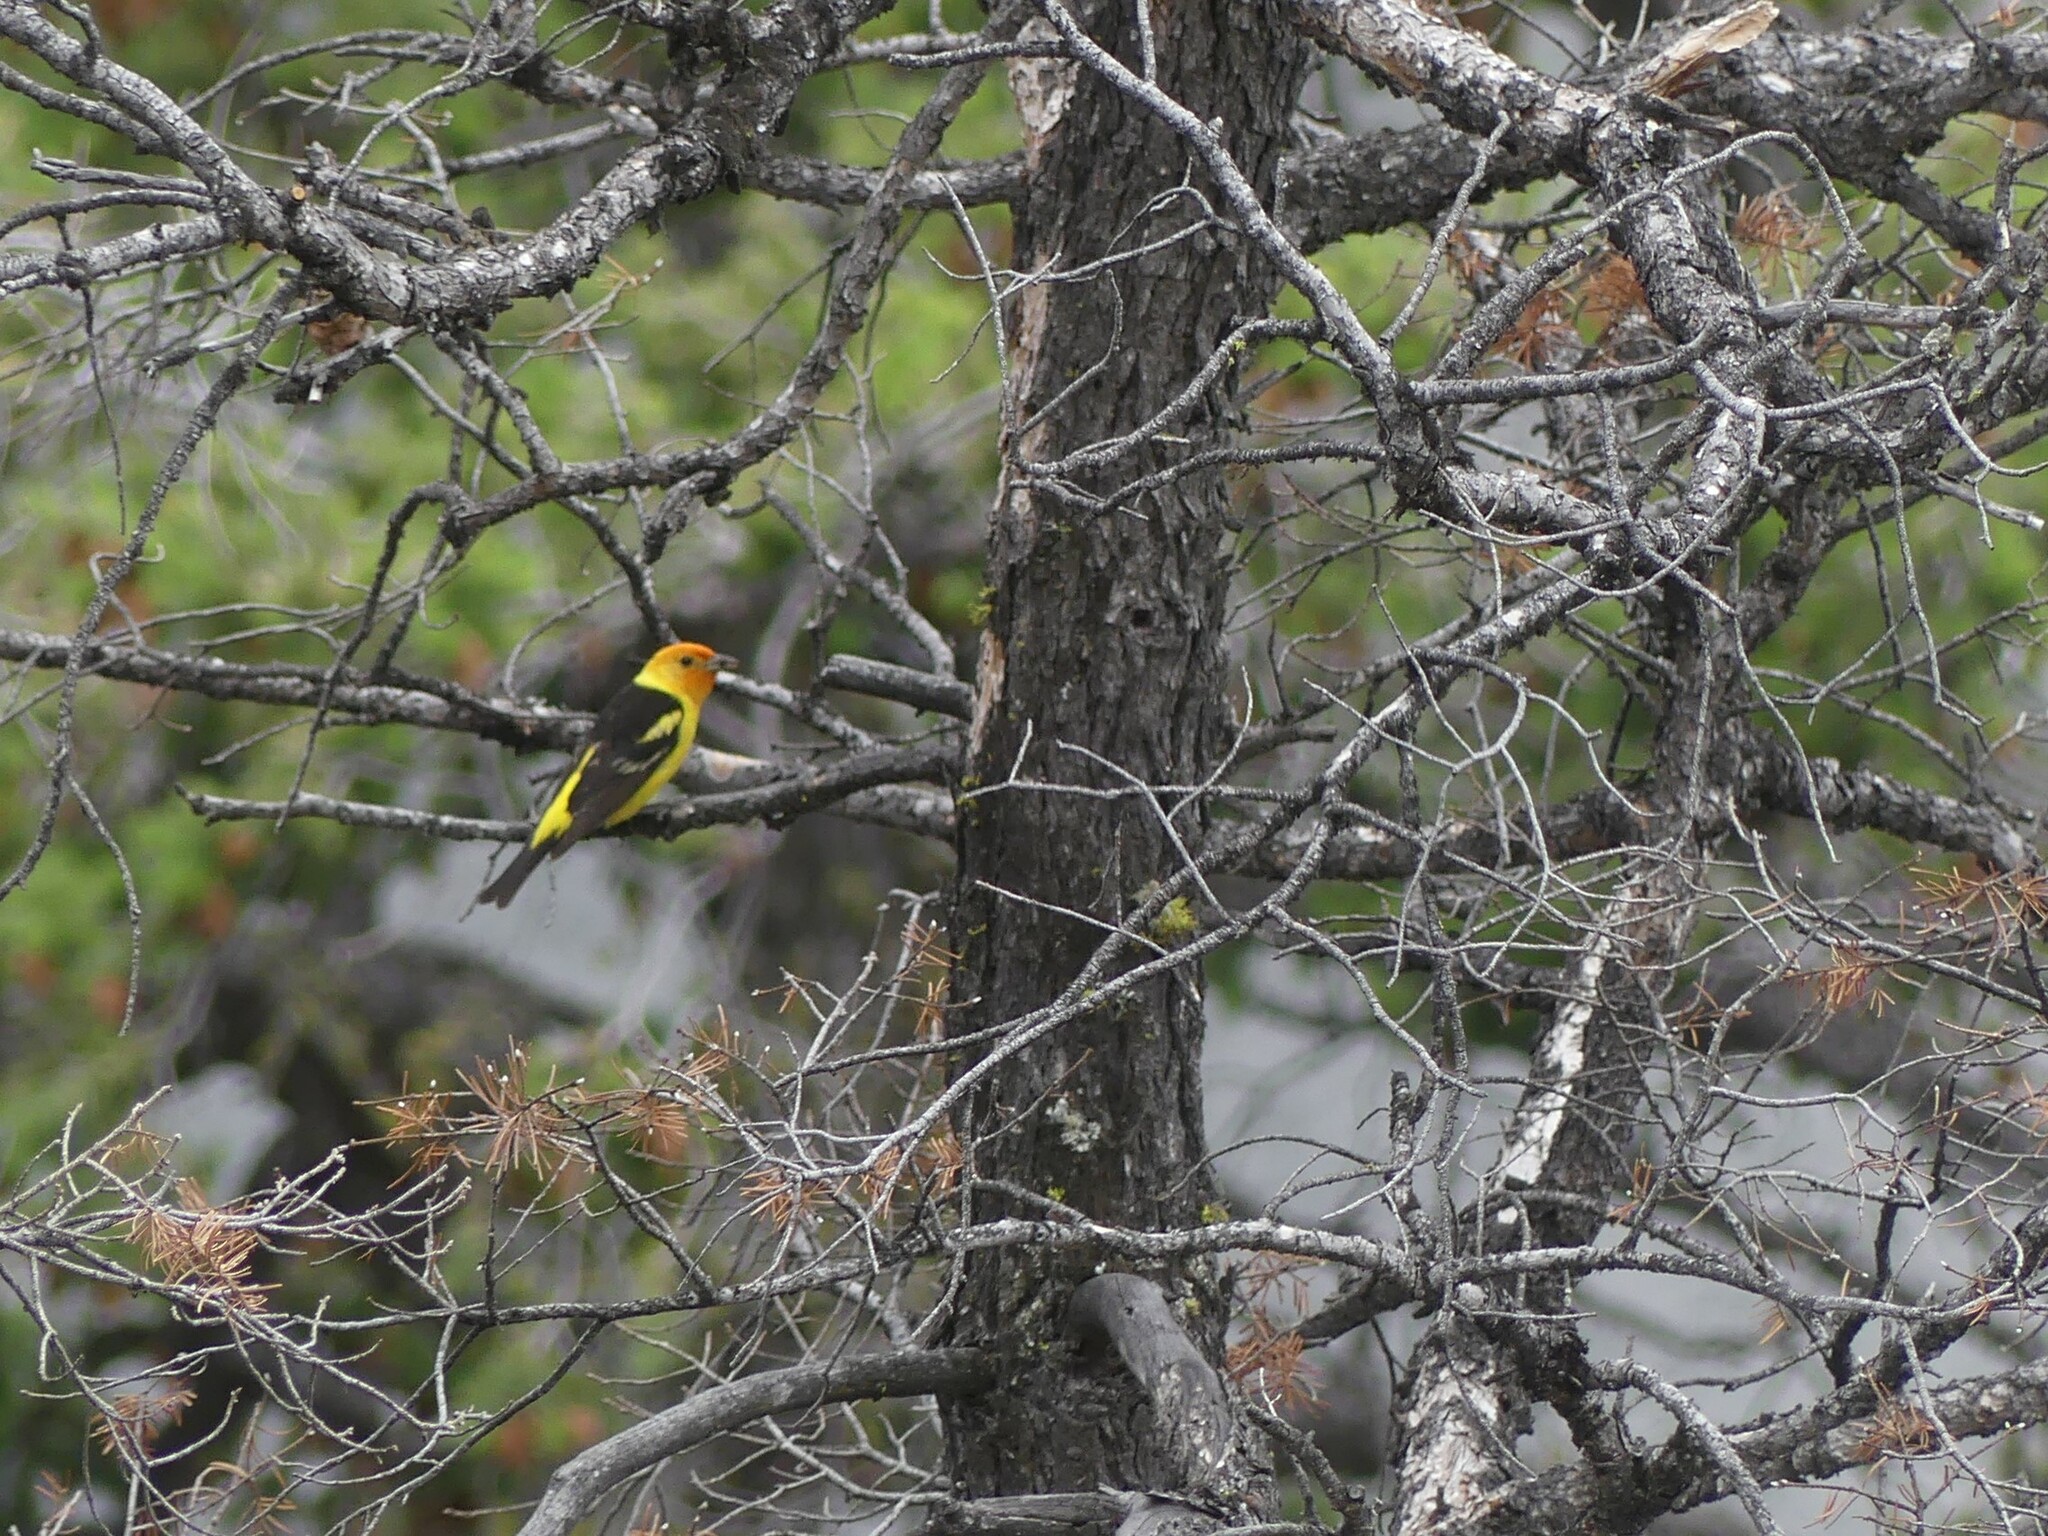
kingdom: Animalia
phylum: Chordata
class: Aves
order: Passeriformes
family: Cardinalidae
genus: Piranga
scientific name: Piranga ludoviciana
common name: Western tanager
